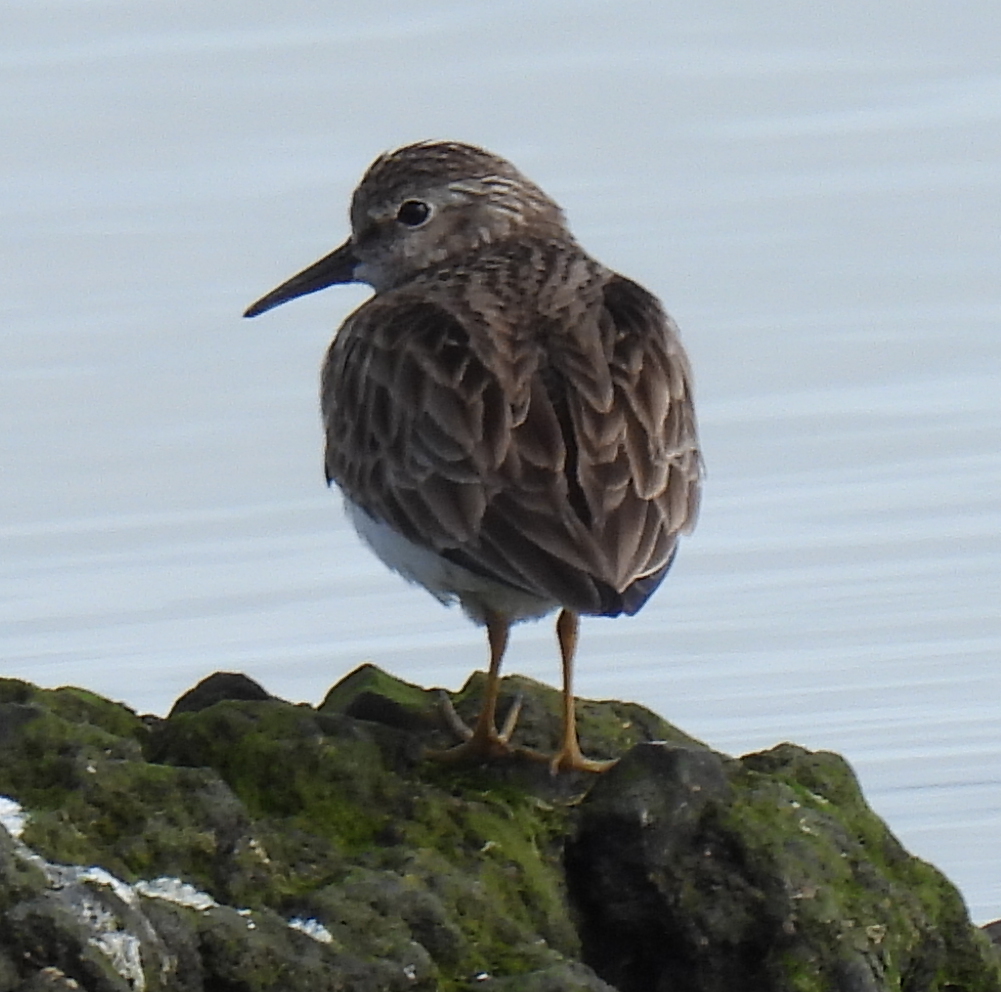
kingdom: Animalia
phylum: Chordata
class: Aves
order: Charadriiformes
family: Scolopacidae
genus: Calidris
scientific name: Calidris minutilla
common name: Least sandpiper
